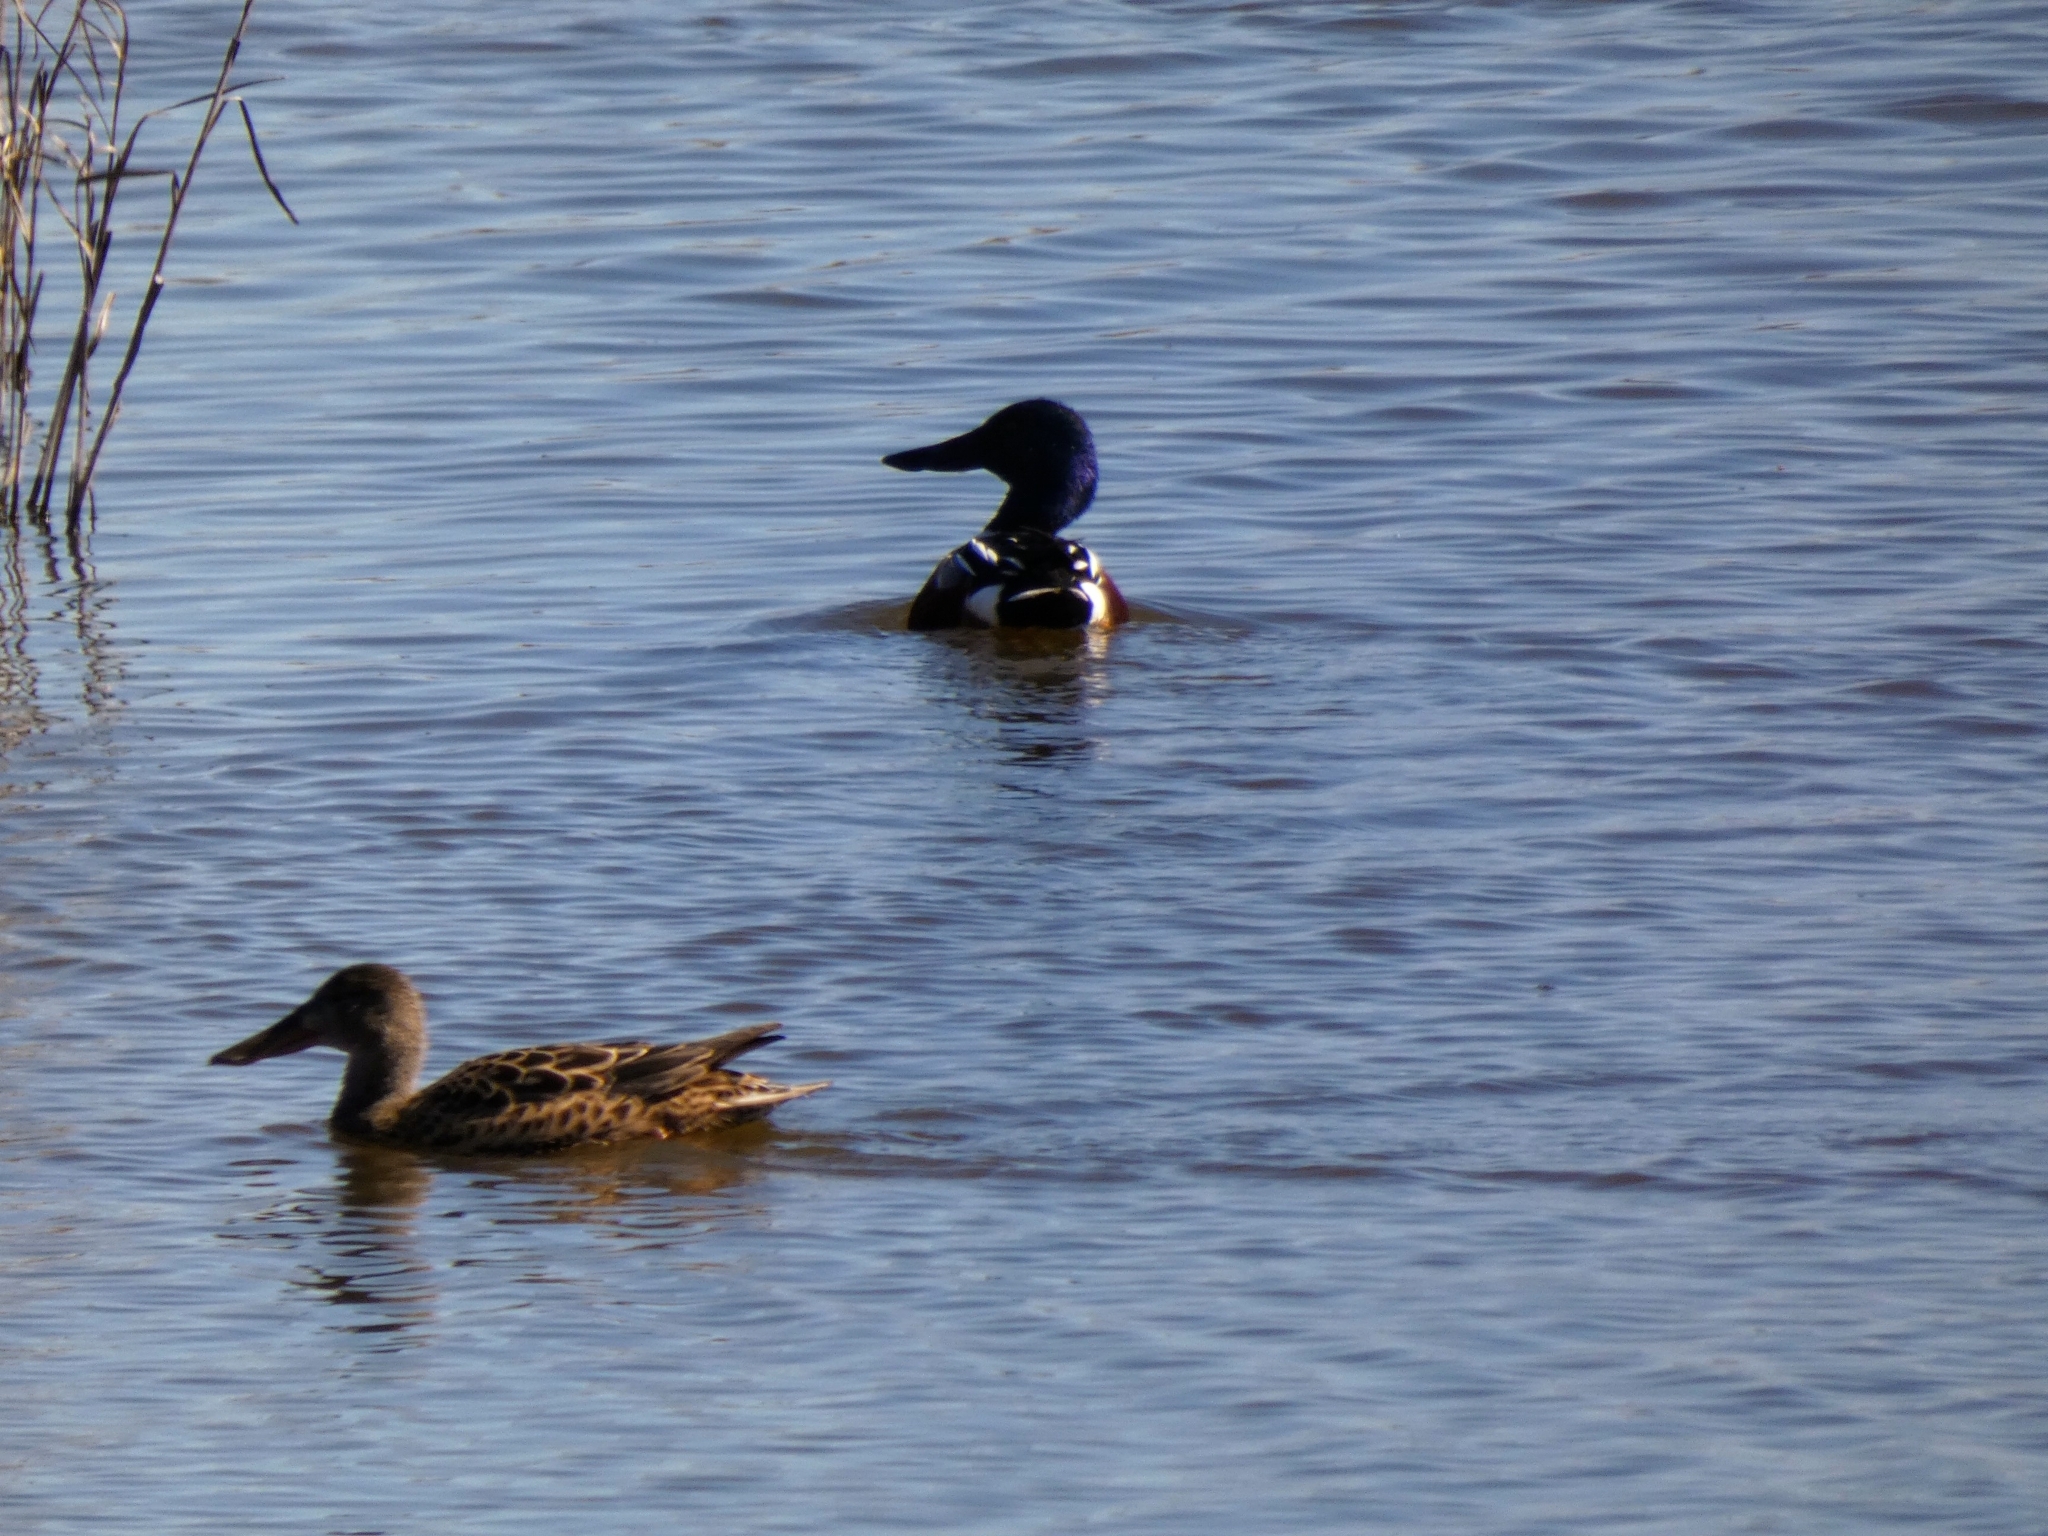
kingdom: Animalia
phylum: Chordata
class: Aves
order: Anseriformes
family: Anatidae
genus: Spatula
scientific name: Spatula clypeata
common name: Northern shoveler
